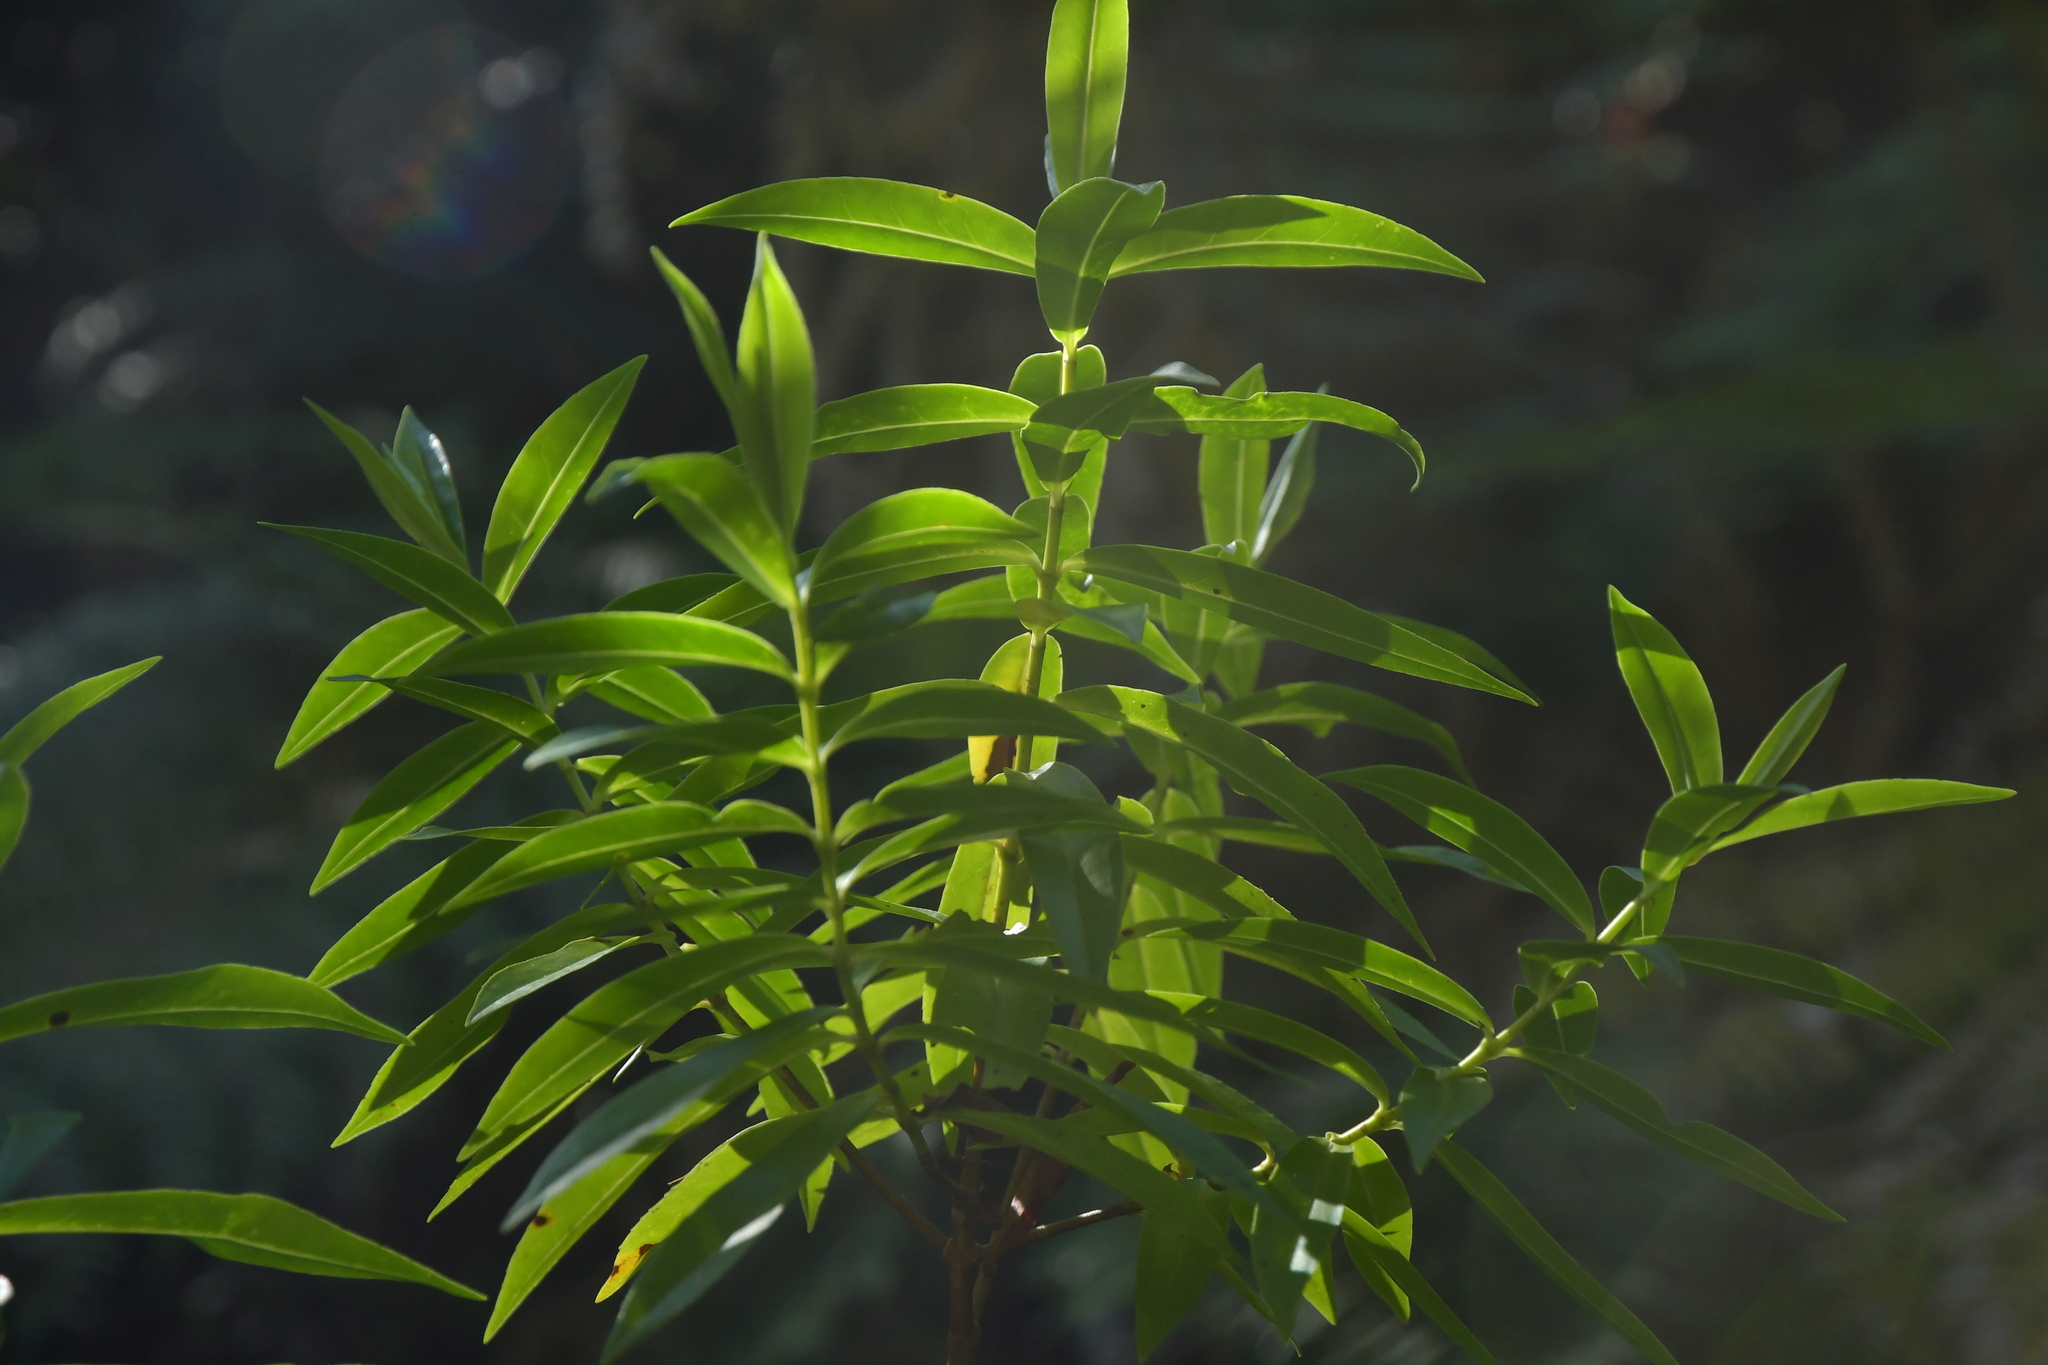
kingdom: Plantae
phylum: Tracheophyta
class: Magnoliopsida
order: Lamiales
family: Plantaginaceae
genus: Veronica
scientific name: Veronica leiophylla
